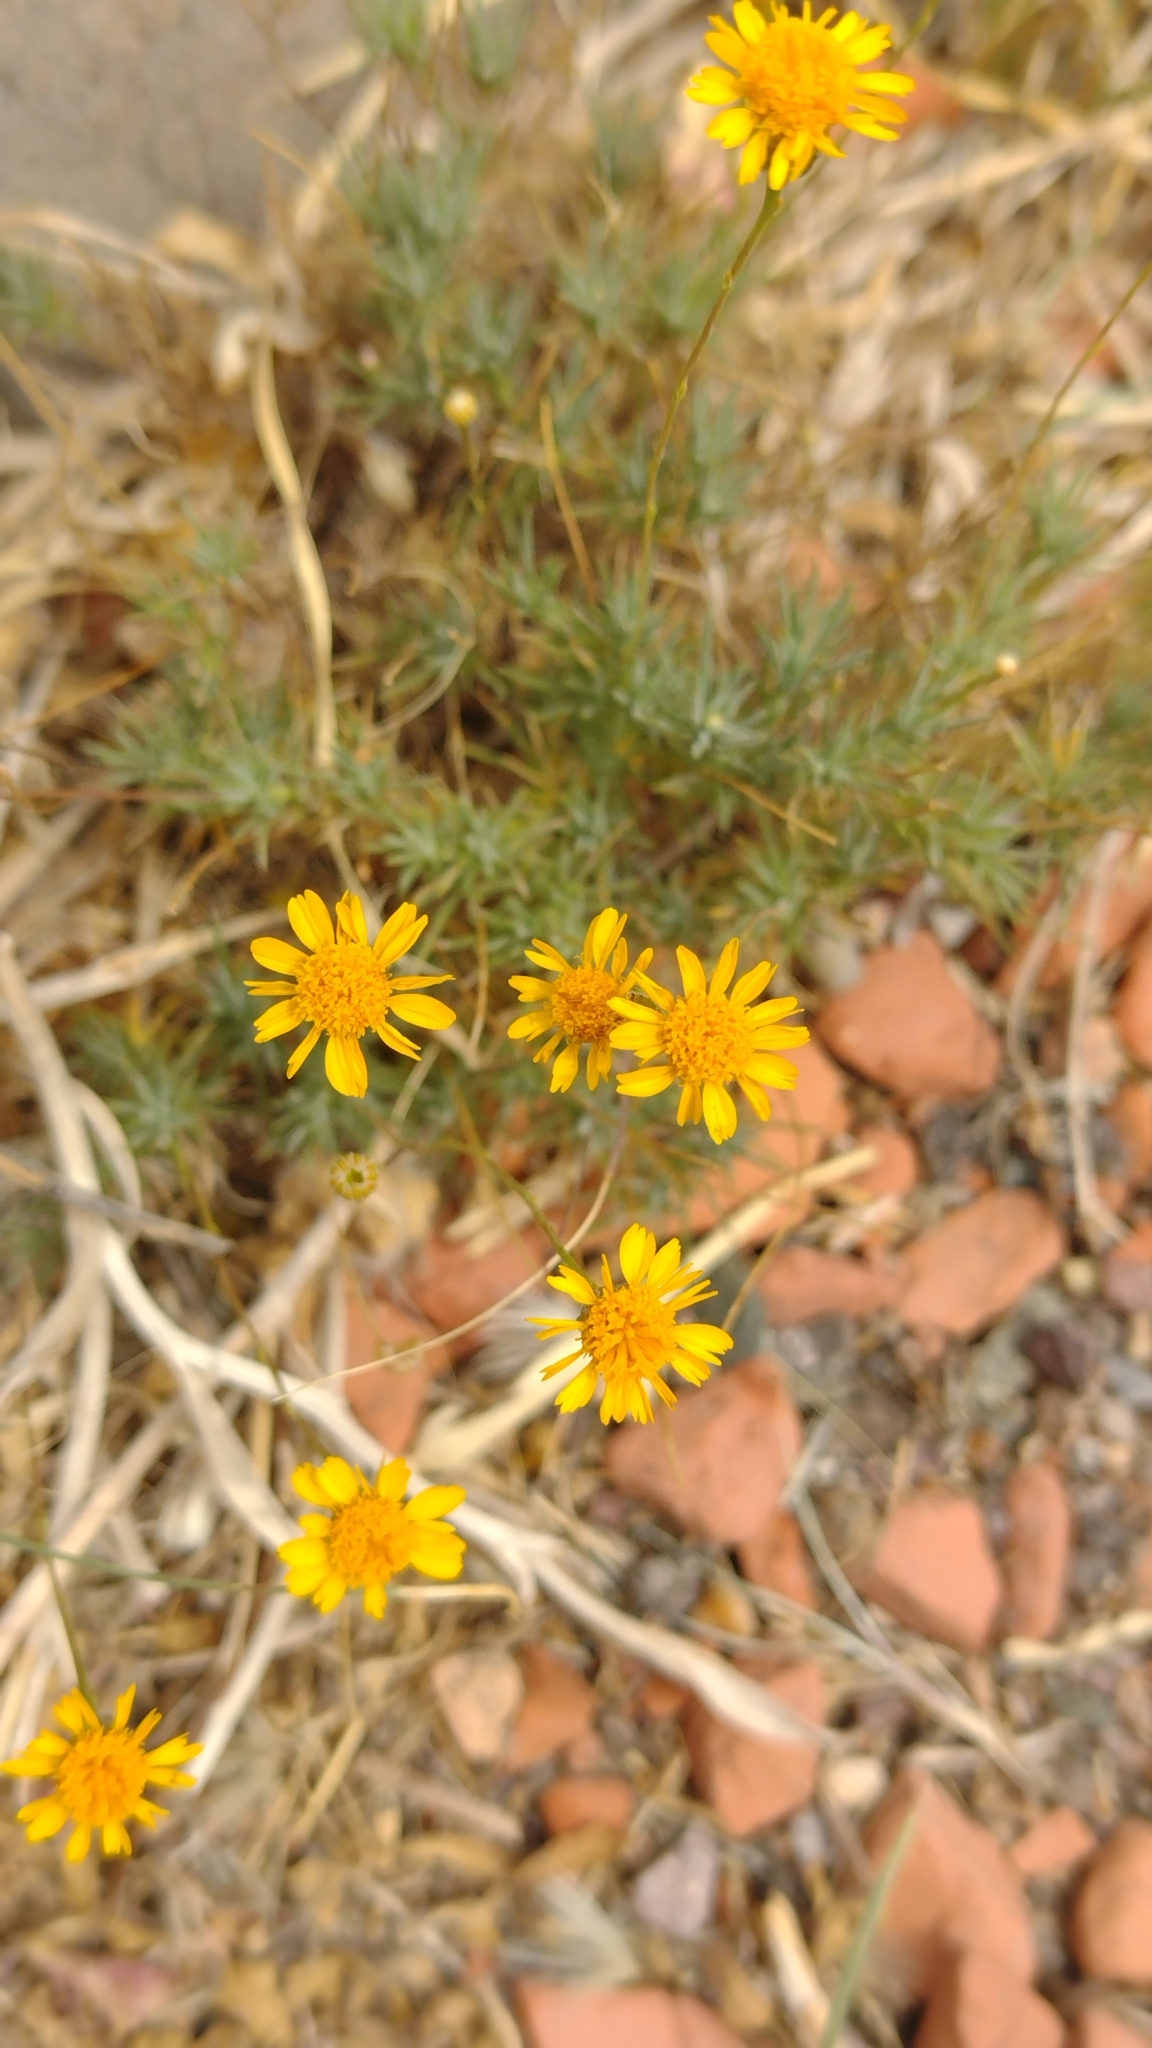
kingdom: Plantae
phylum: Tracheophyta
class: Magnoliopsida
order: Asterales
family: Asteraceae
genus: Thymophylla
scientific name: Thymophylla pentachaeta
